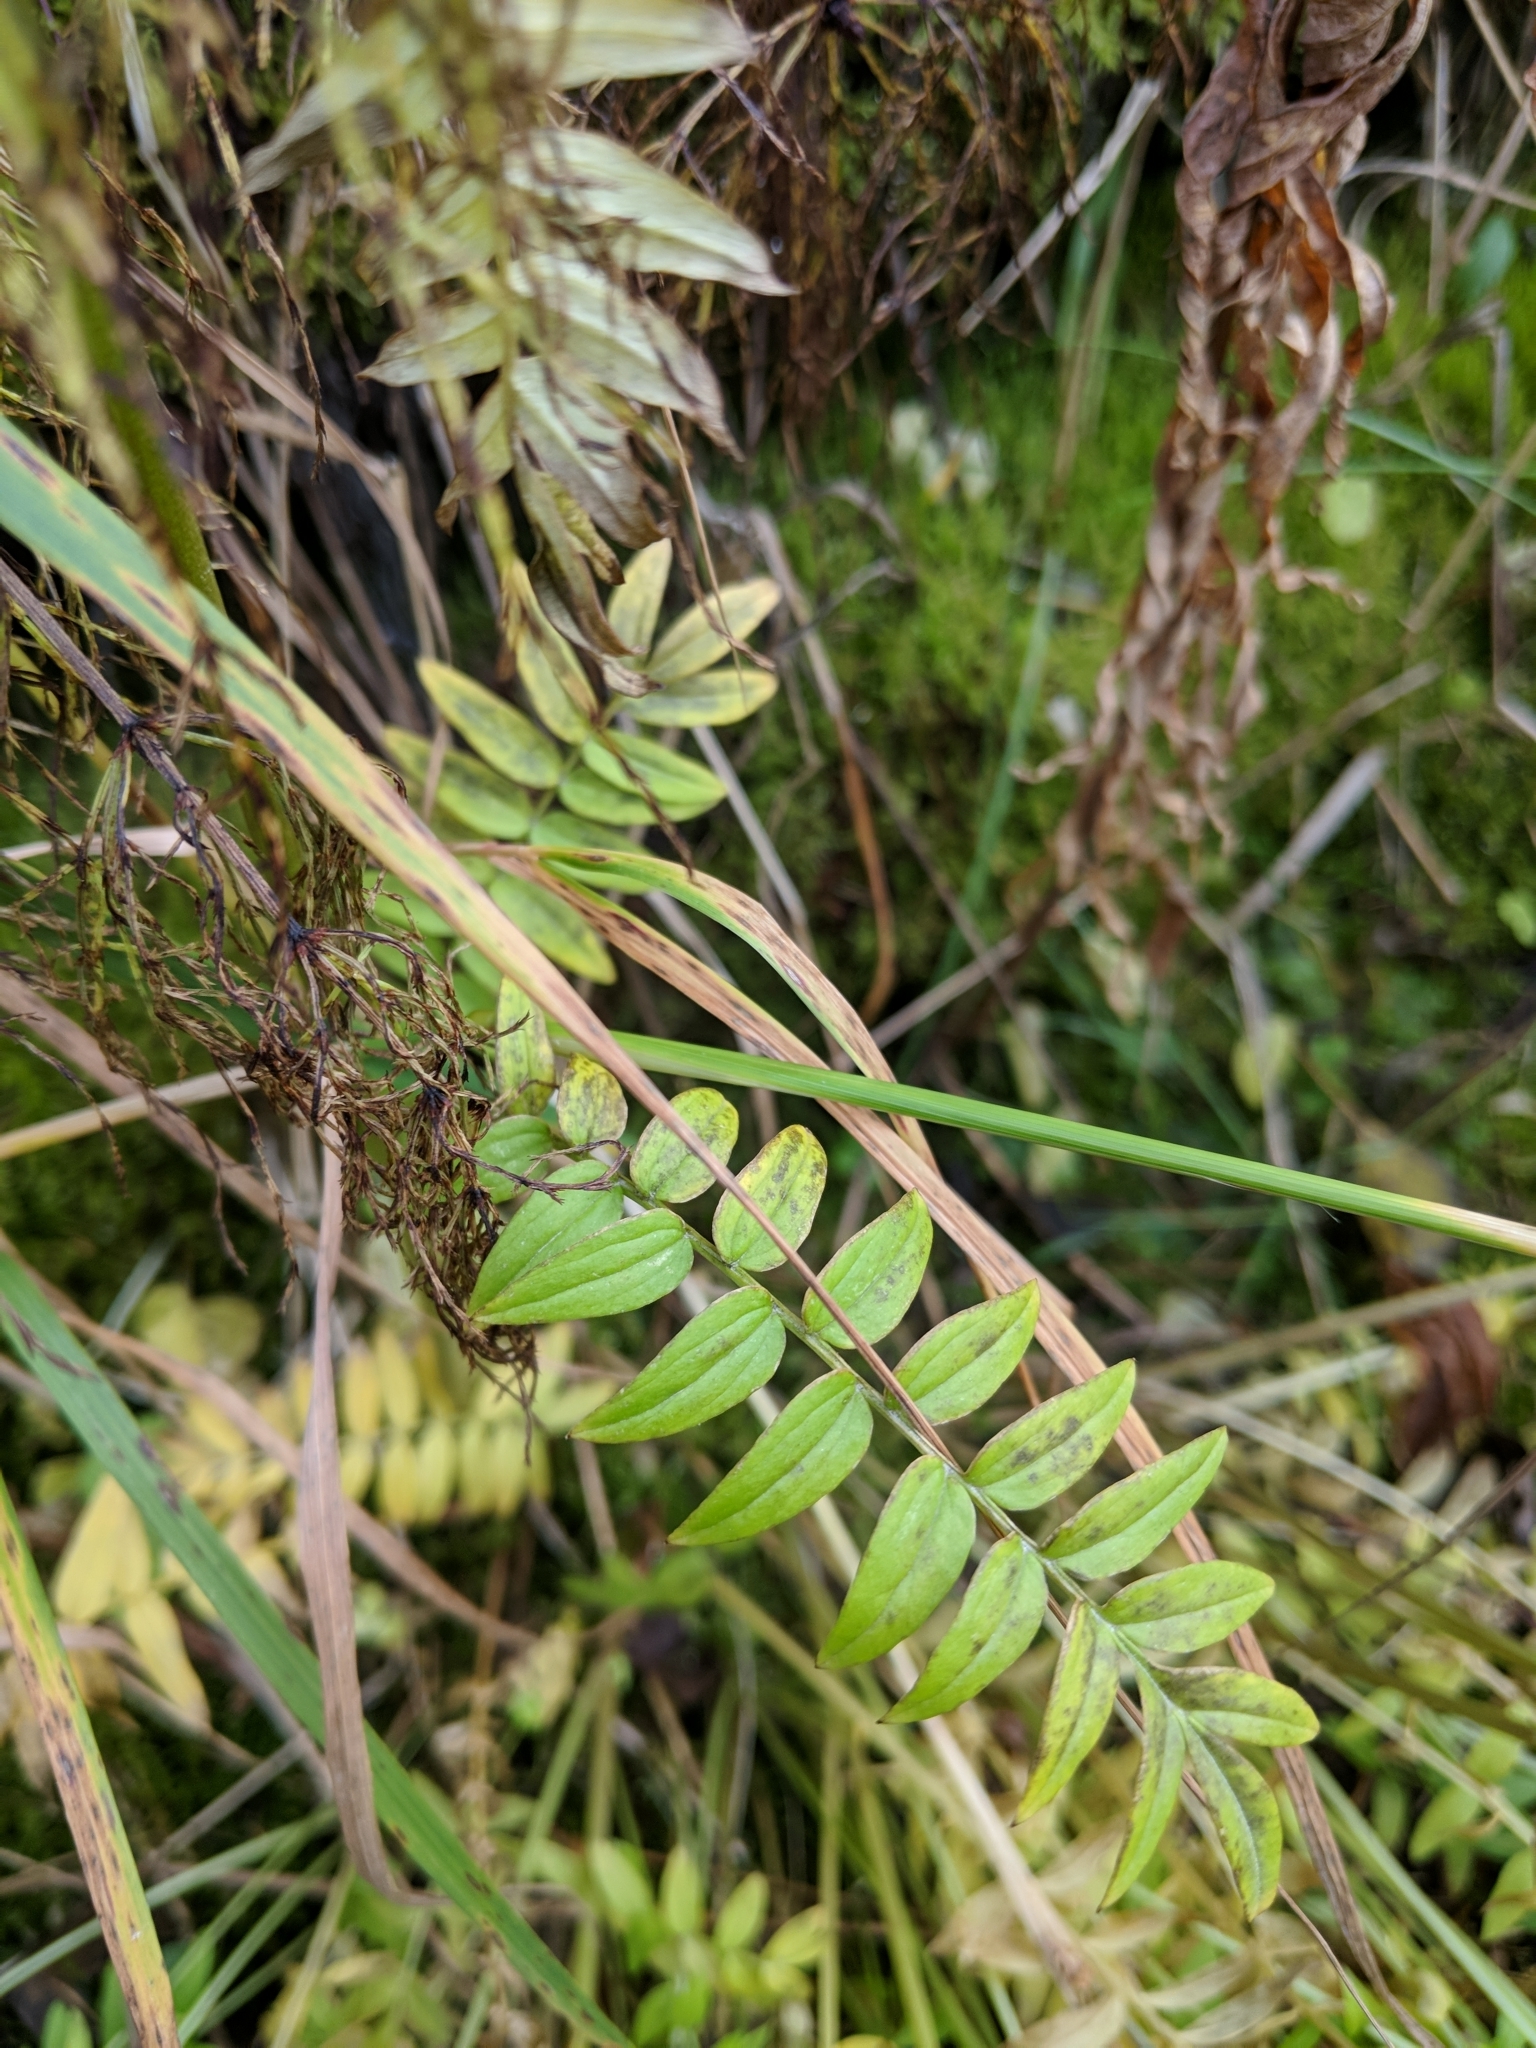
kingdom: Plantae
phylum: Tracheophyta
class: Magnoliopsida
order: Ericales
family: Polemoniaceae
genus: Polemonium
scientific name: Polemonium caeruleum
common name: Jacob's-ladder
